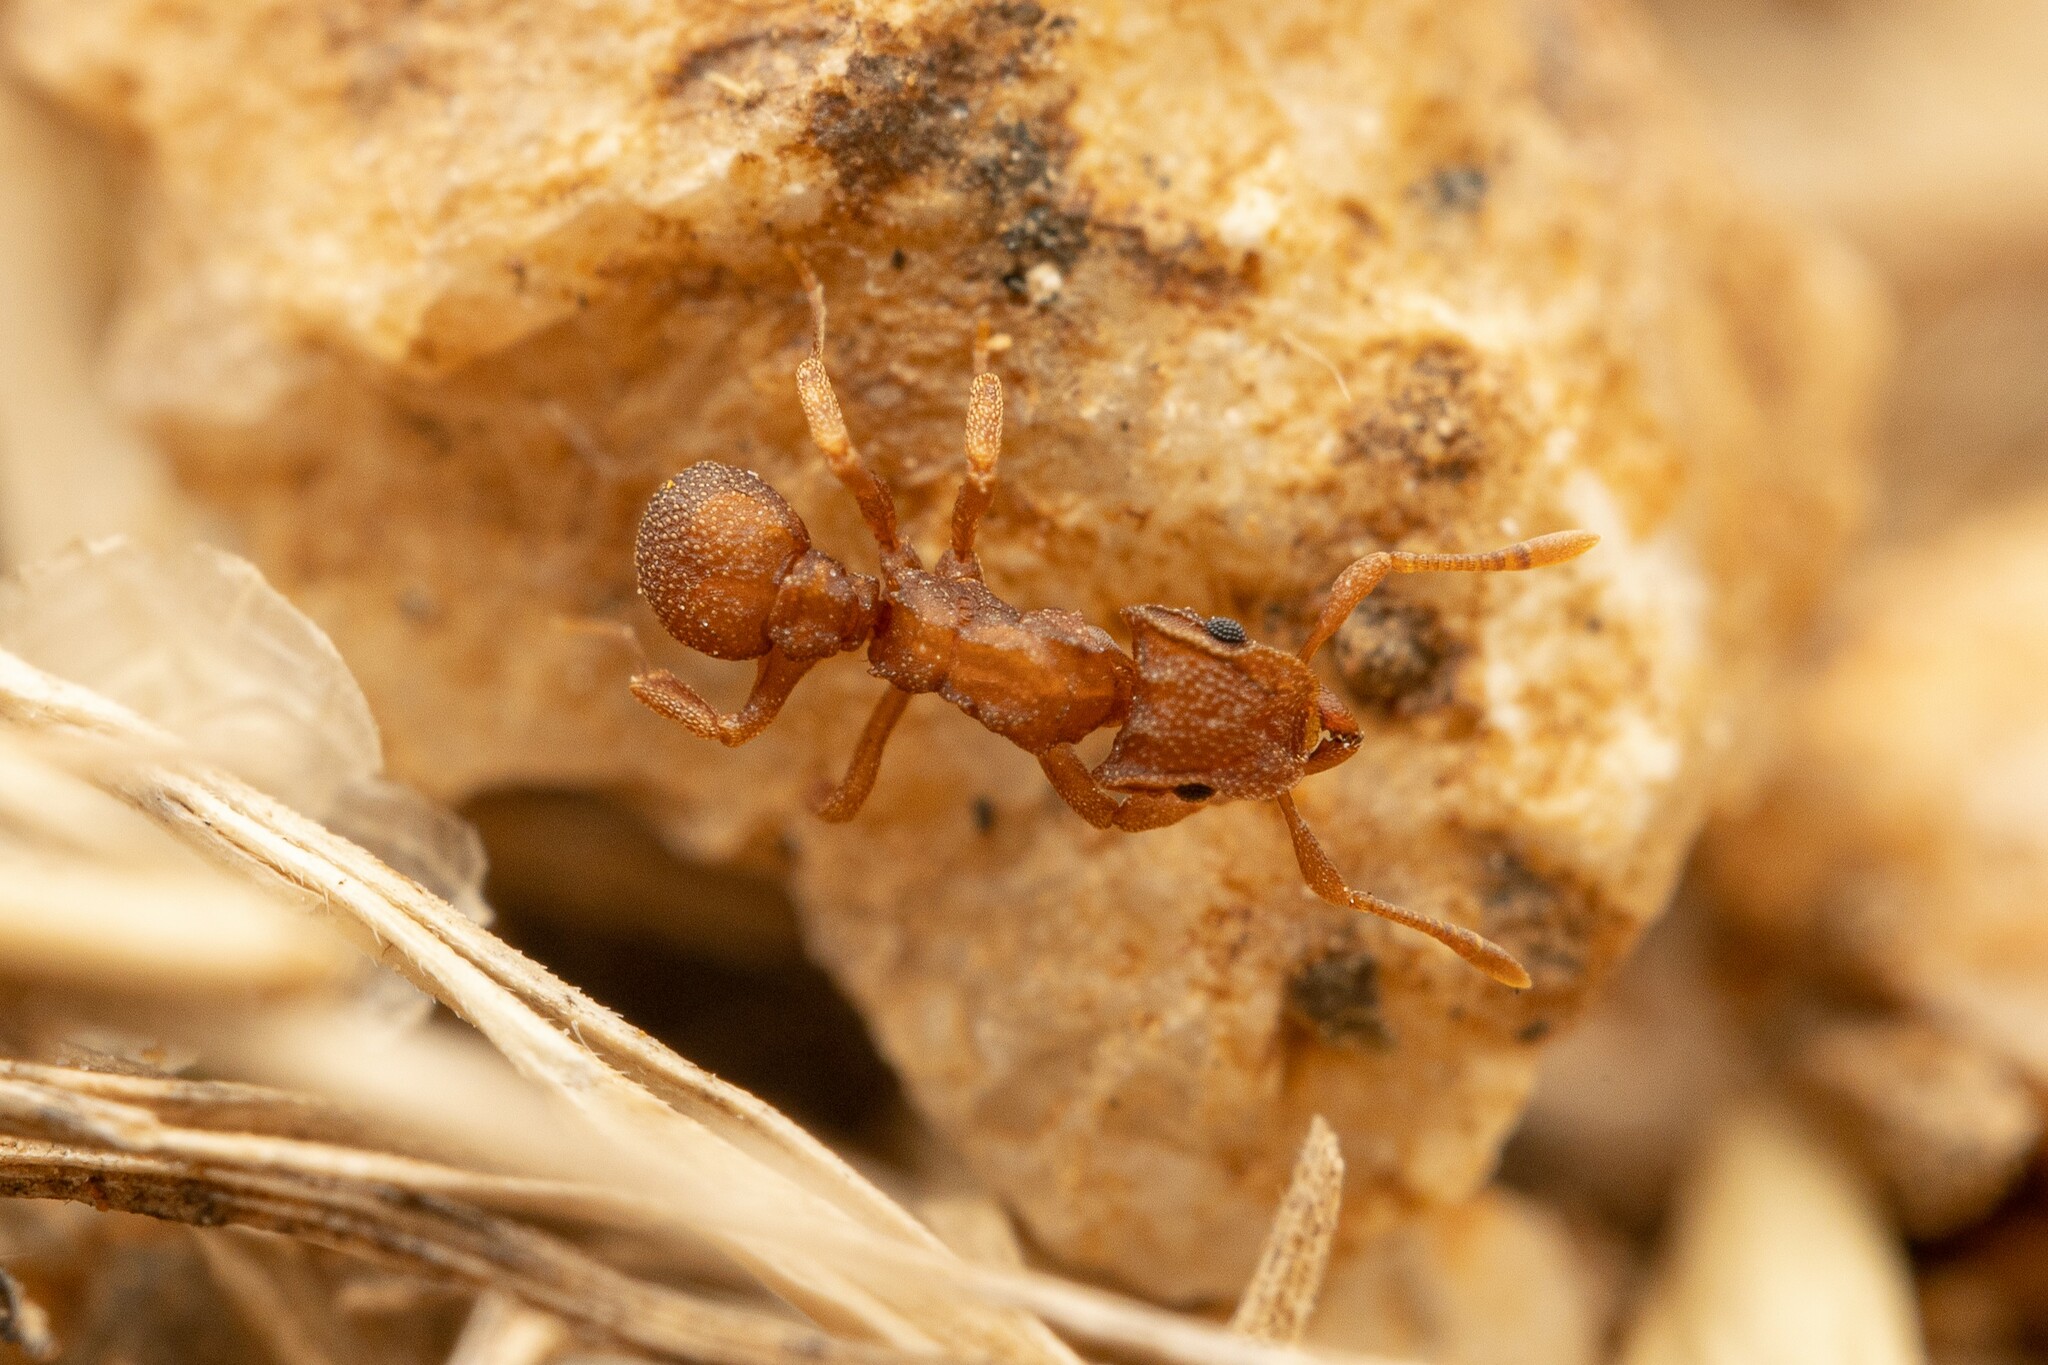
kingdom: Animalia
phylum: Arthropoda
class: Insecta
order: Hymenoptera
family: Formicidae
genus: Cyphomyrmex
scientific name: Cyphomyrmex wheeleri
